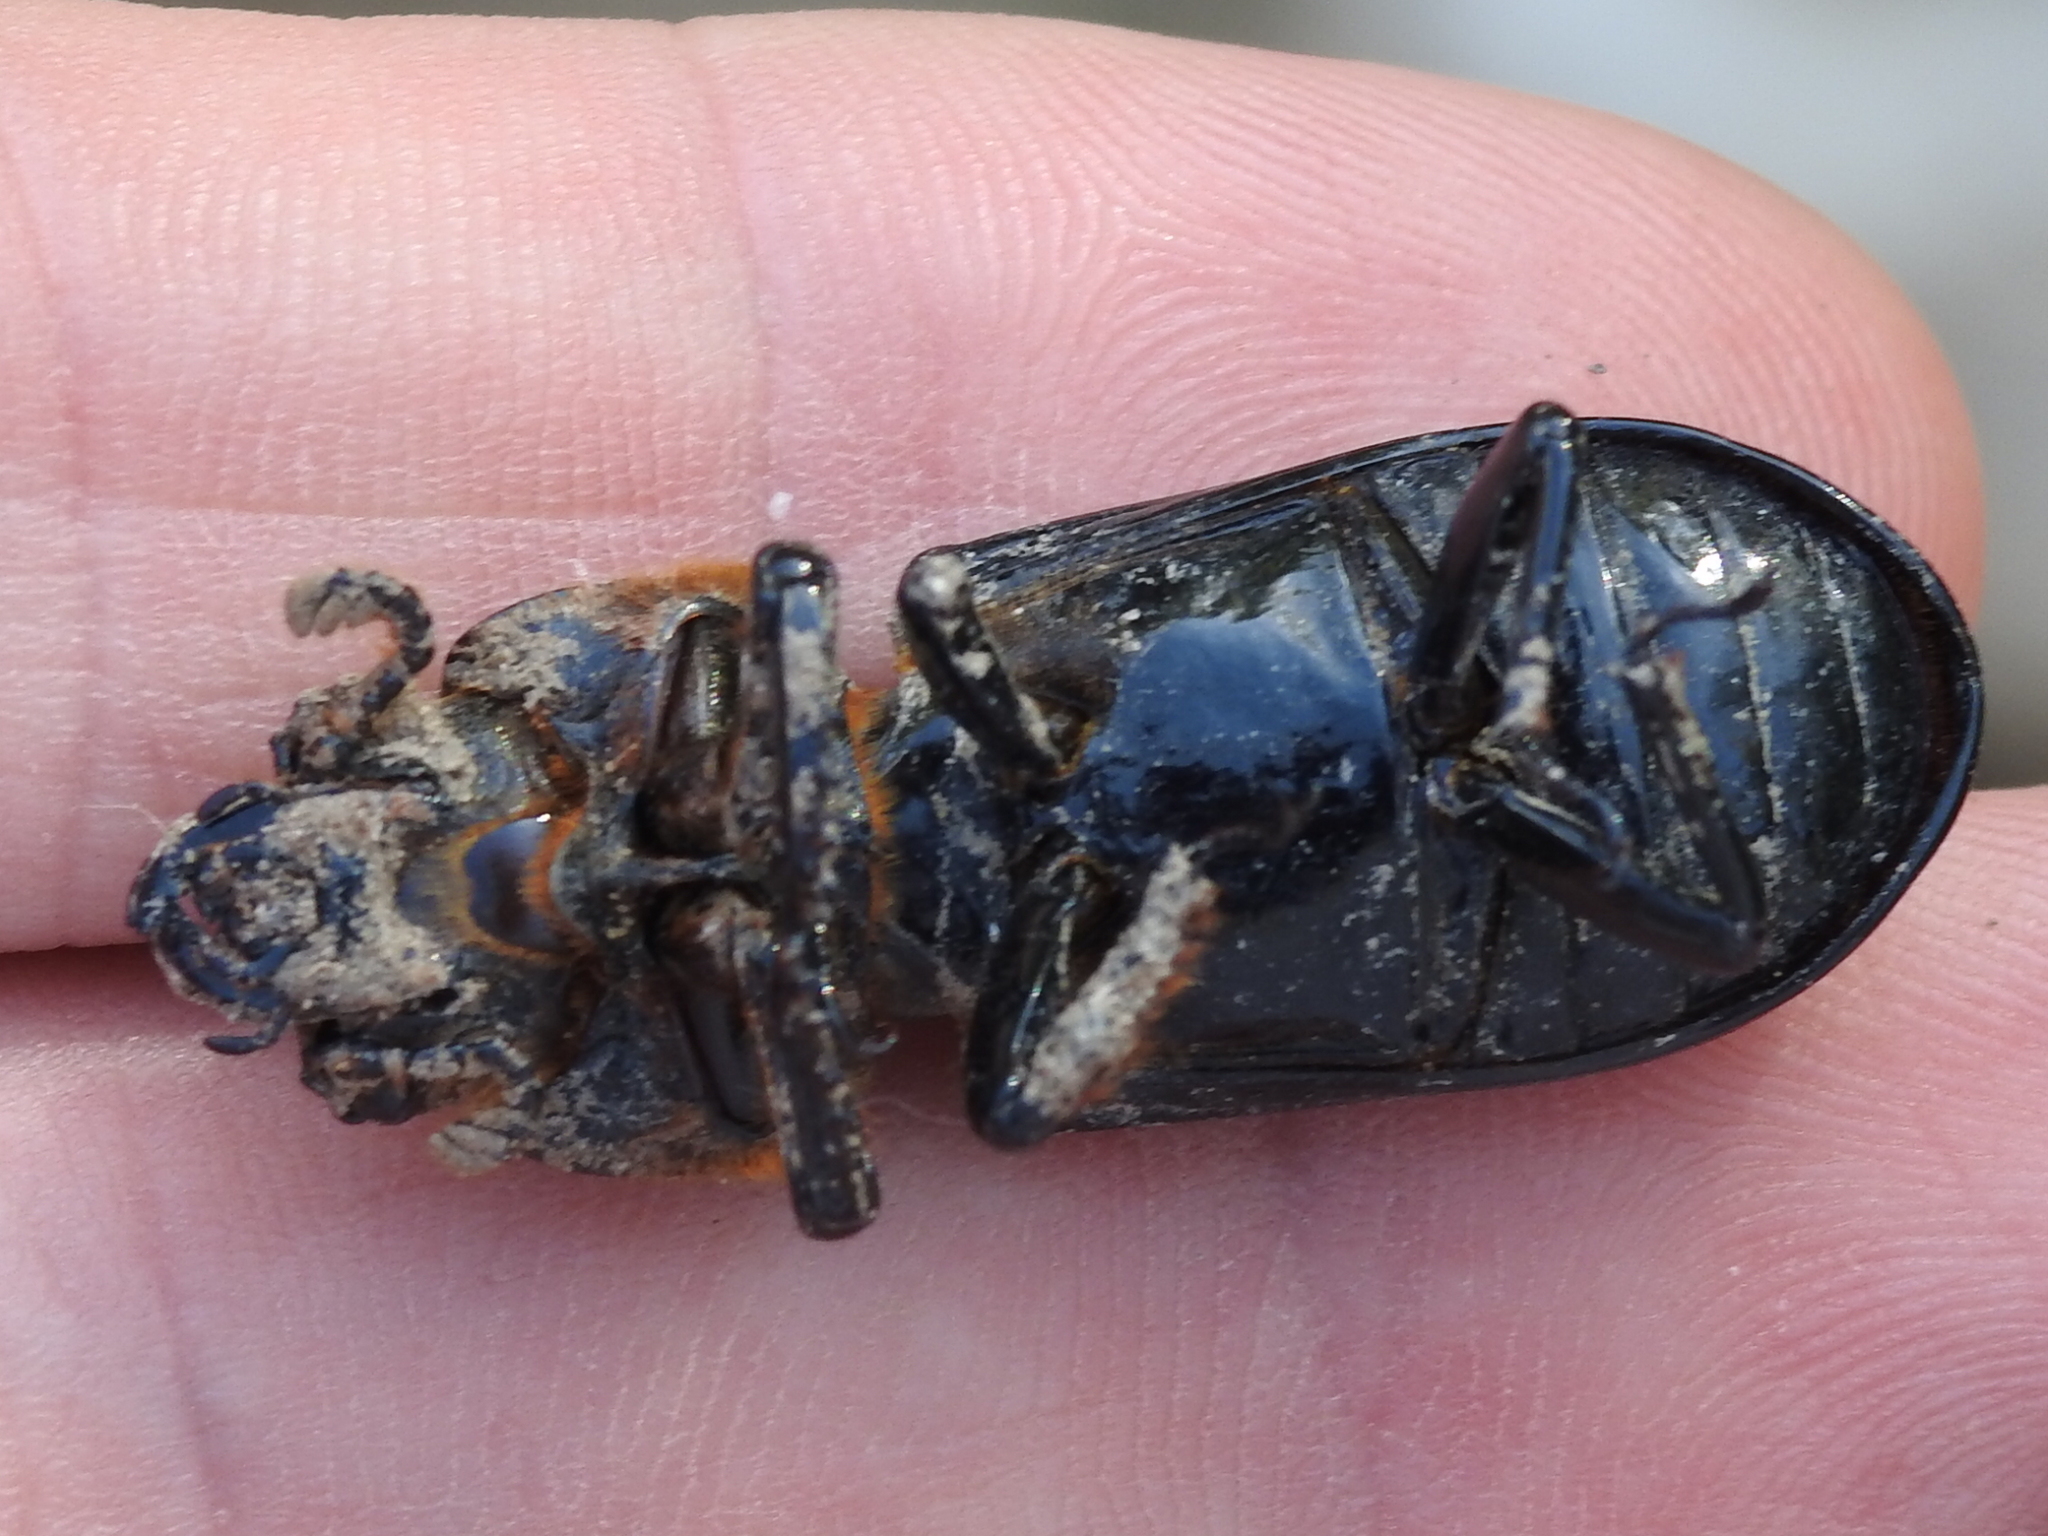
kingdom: Animalia
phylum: Arthropoda
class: Insecta
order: Coleoptera
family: Passalidae
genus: Odontotaenius
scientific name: Odontotaenius disjunctus
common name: Patent leather beetle
